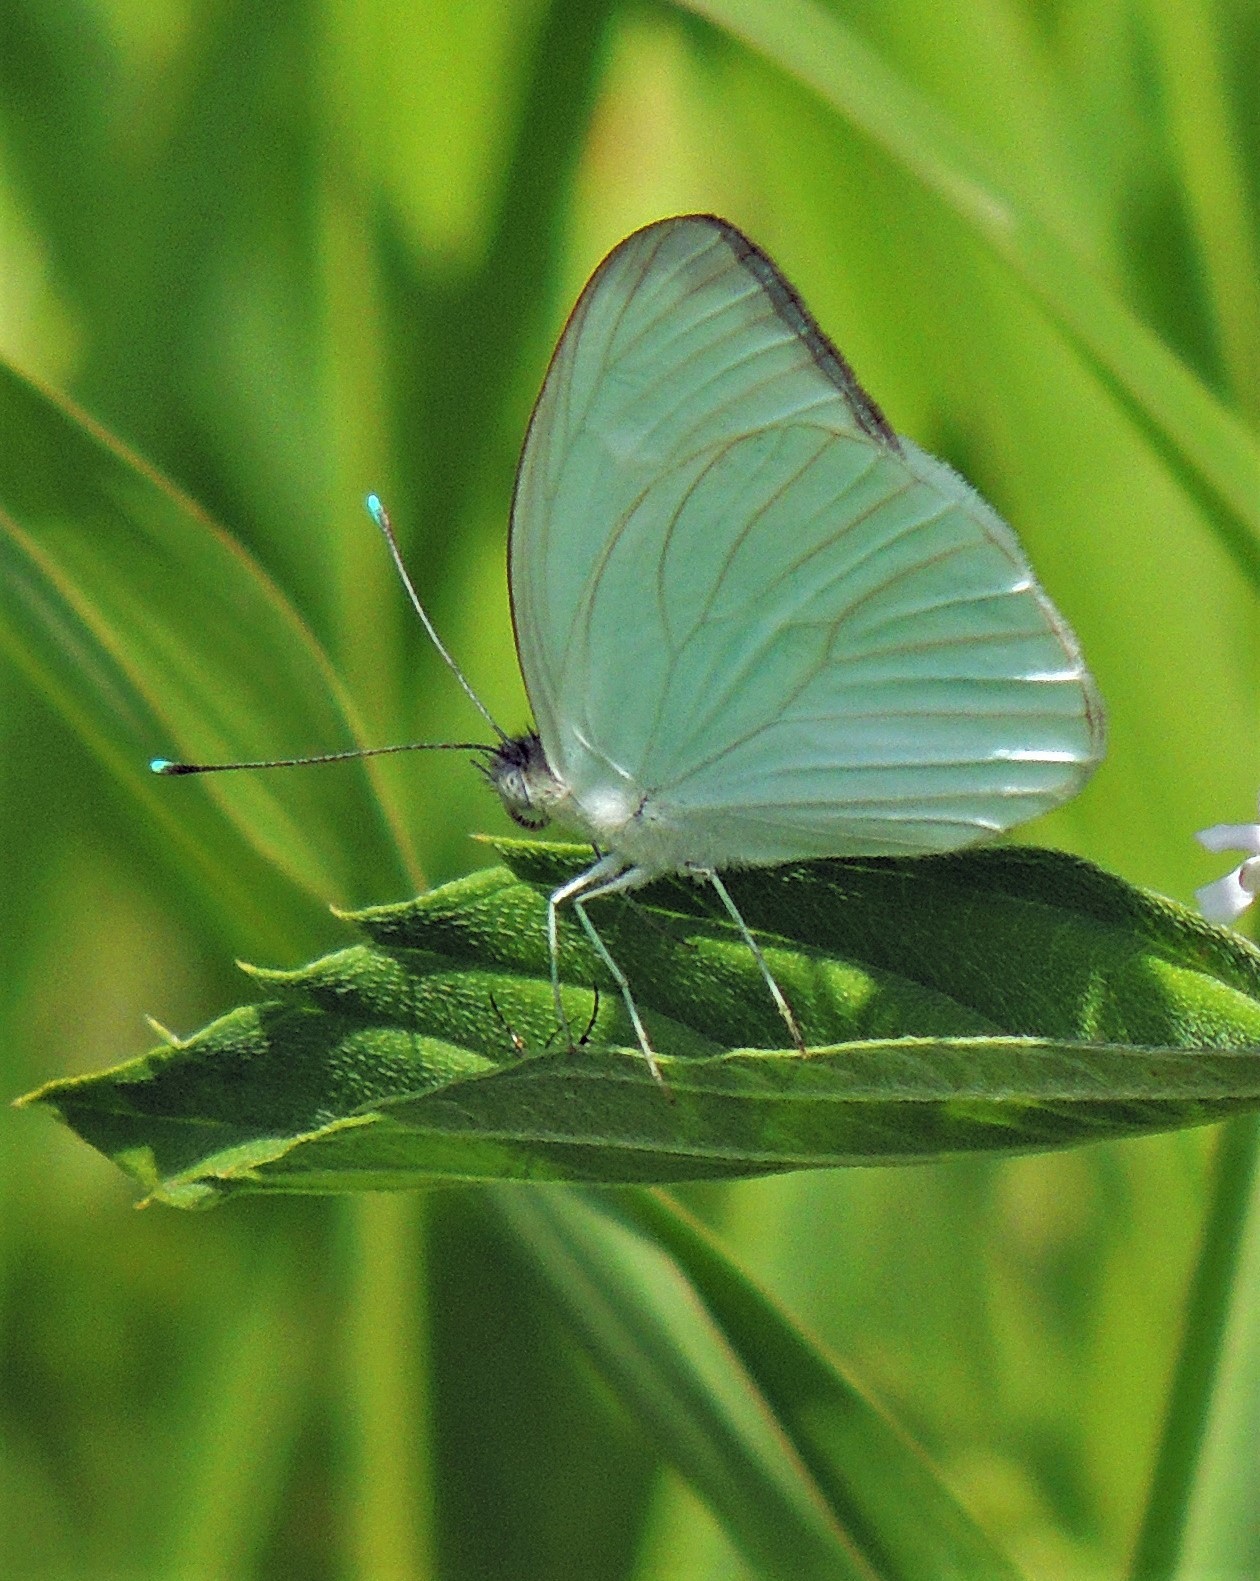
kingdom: Animalia
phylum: Arthropoda
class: Insecta
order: Lepidoptera
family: Pieridae
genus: Ascia
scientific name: Ascia monuste
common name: Great southern white
